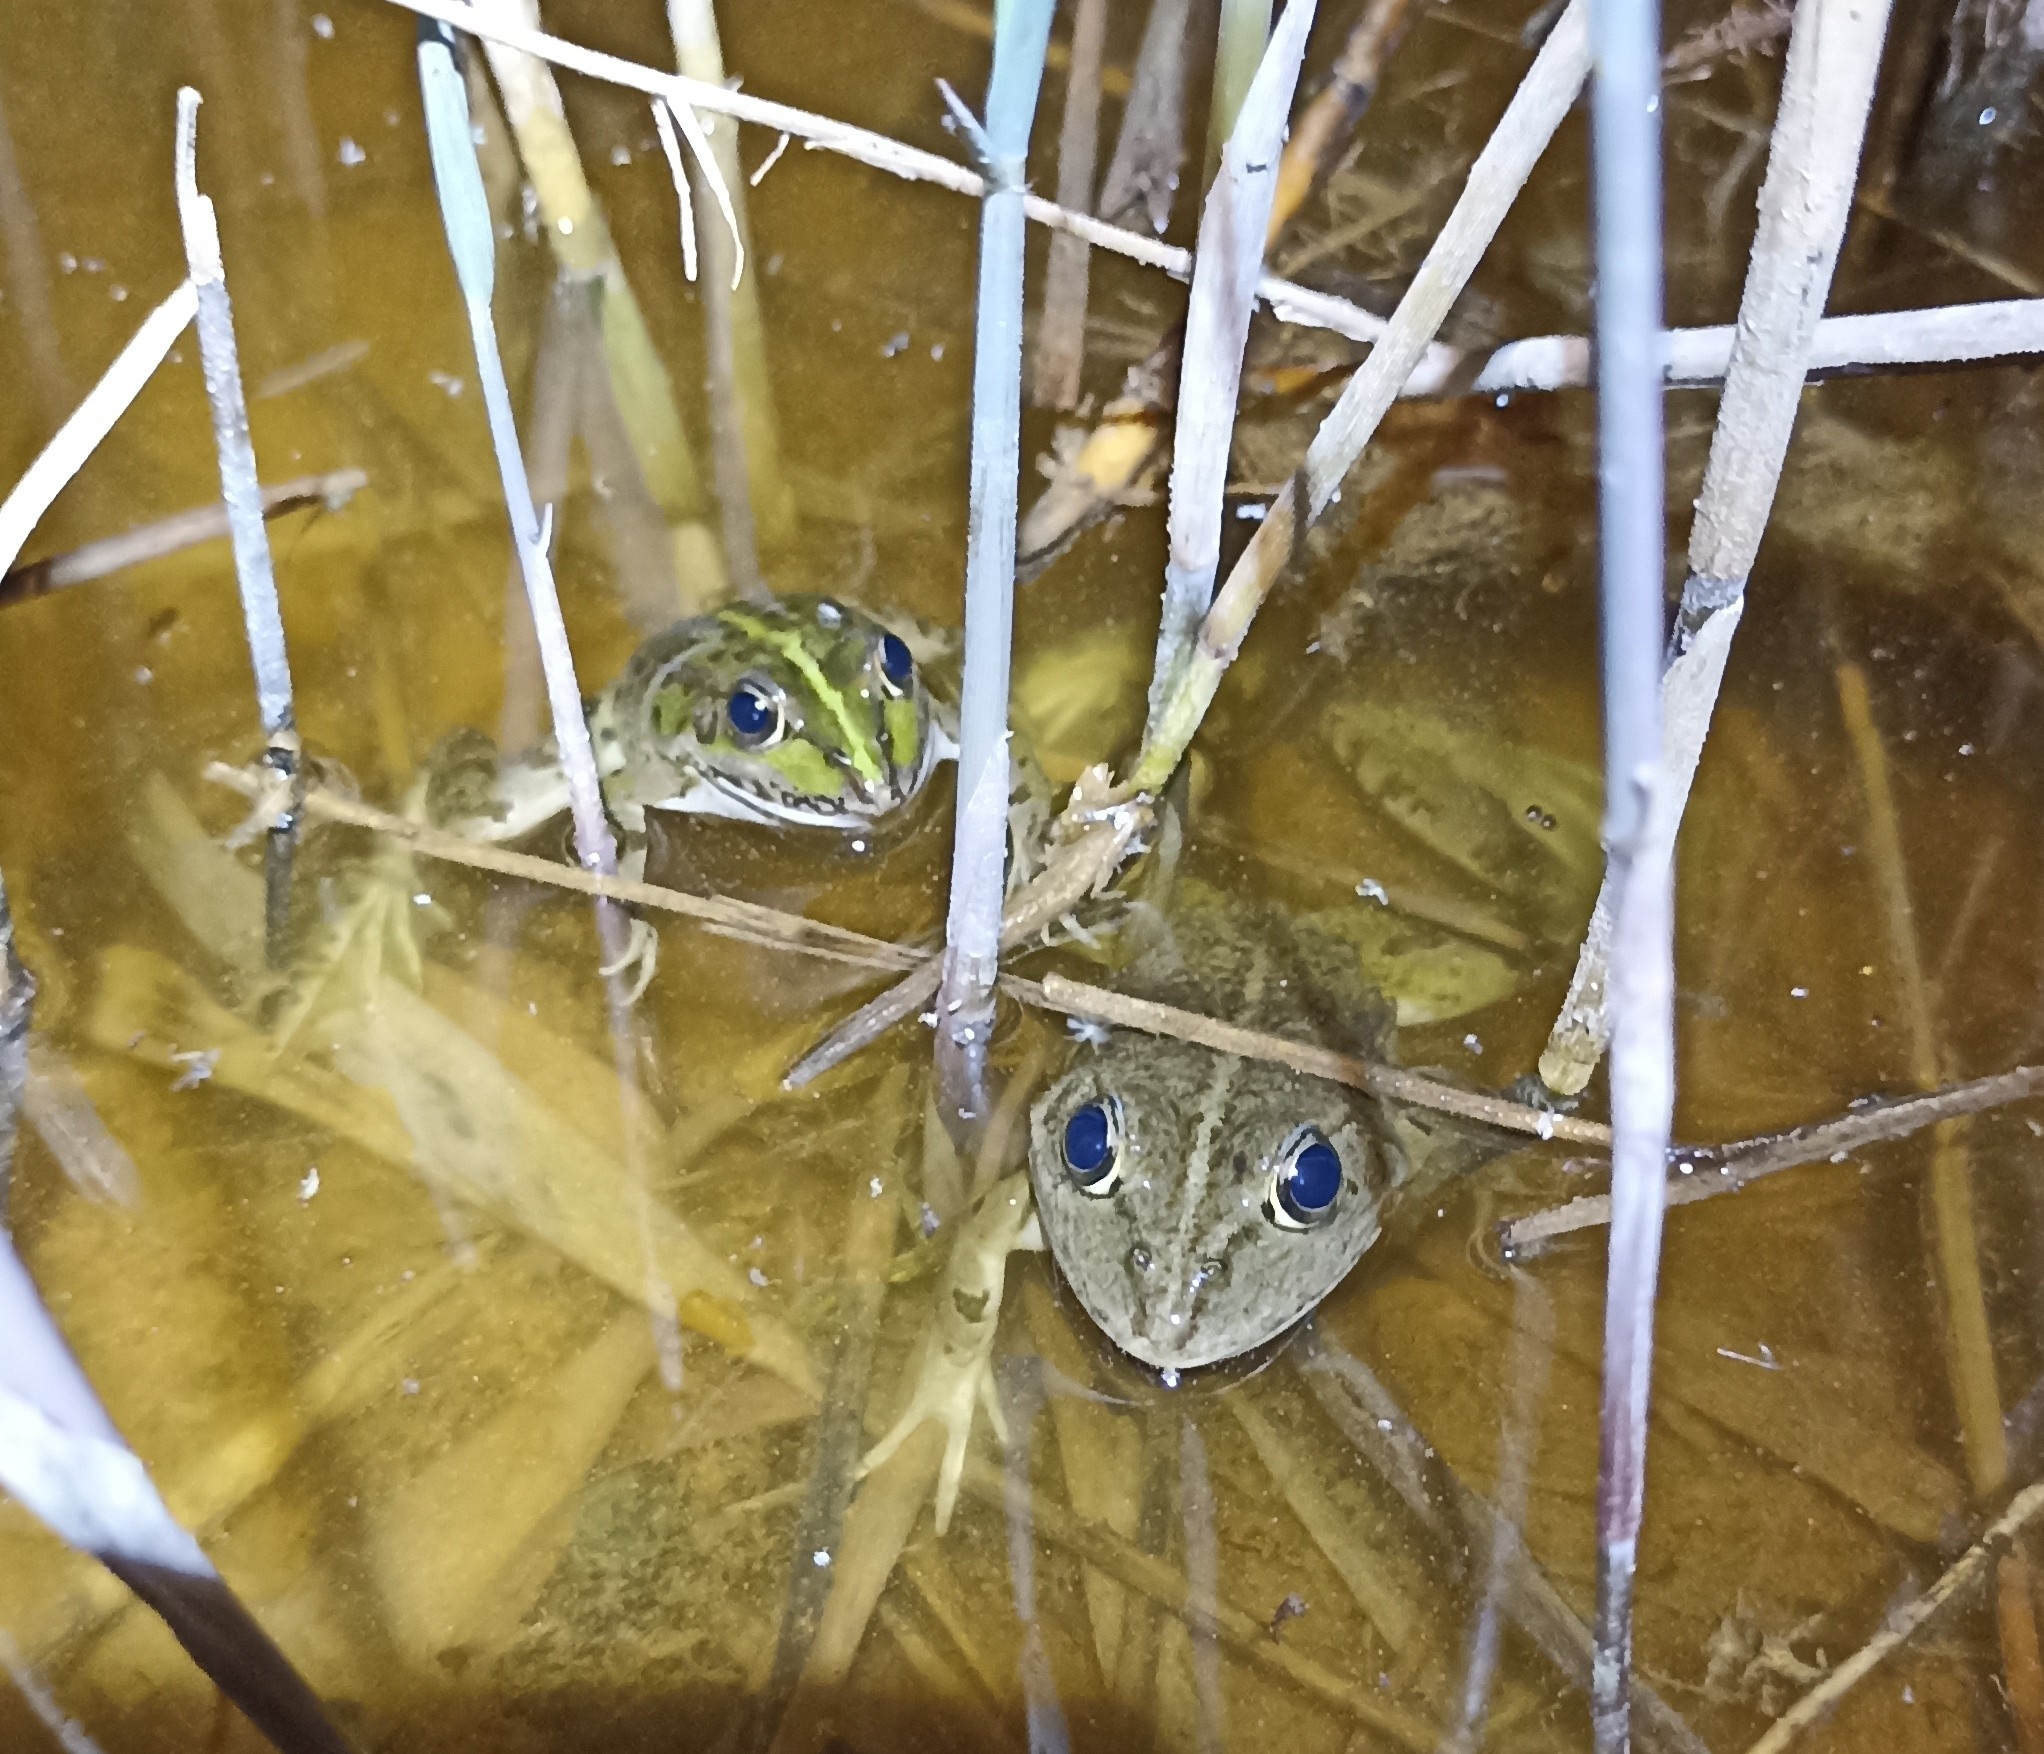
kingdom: Animalia
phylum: Chordata
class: Amphibia
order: Anura
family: Ranidae
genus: Pelophylax
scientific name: Pelophylax
